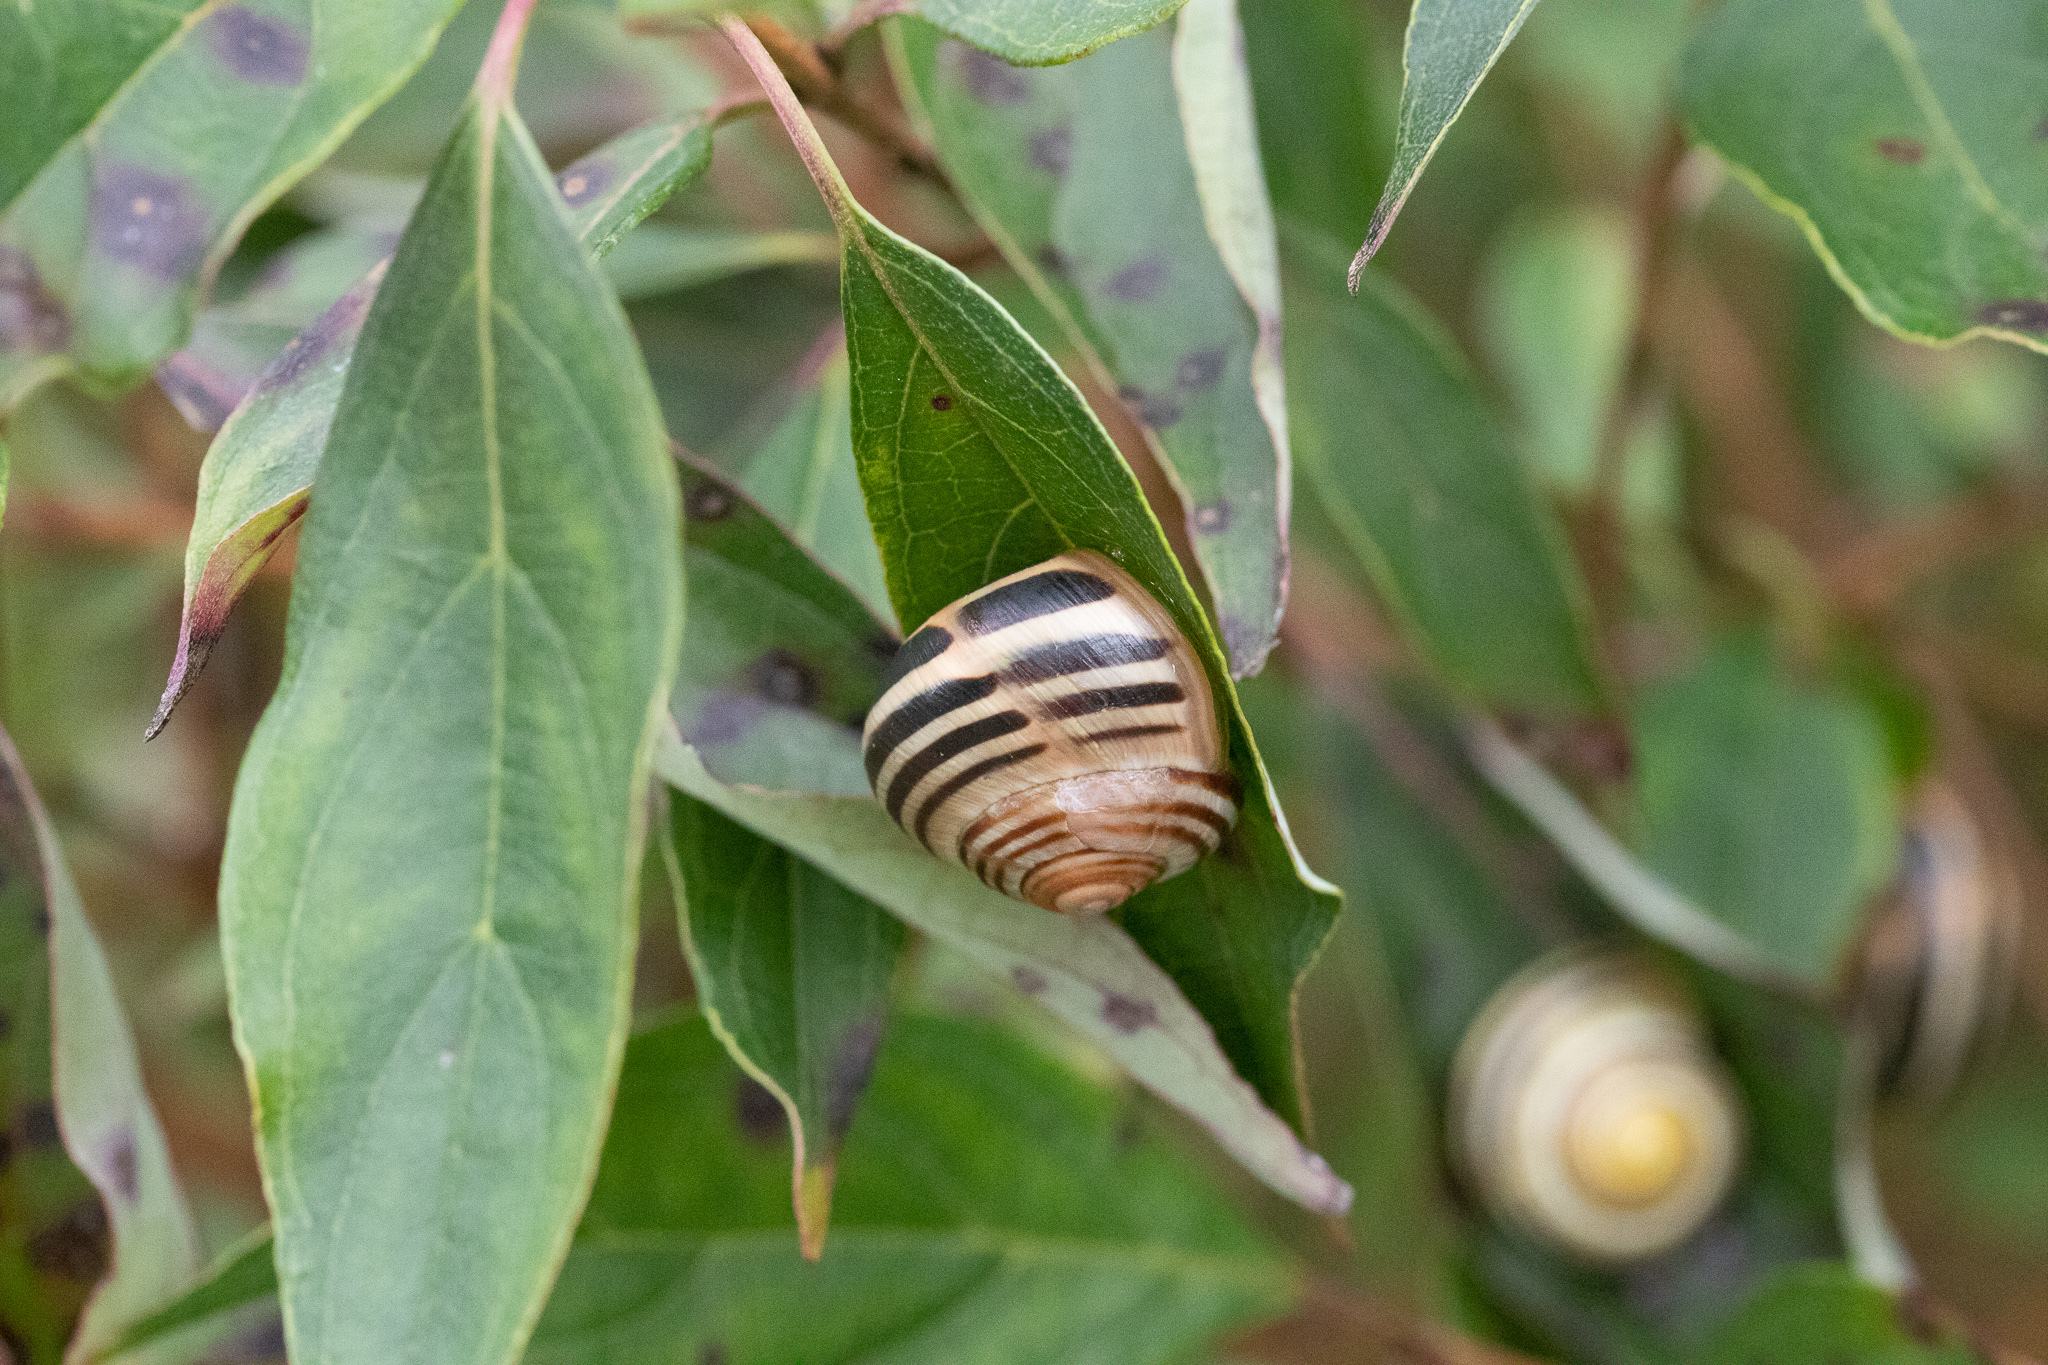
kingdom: Animalia
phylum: Mollusca
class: Gastropoda
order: Stylommatophora
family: Helicidae
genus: Cepaea
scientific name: Cepaea nemoralis
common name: Grovesnail
